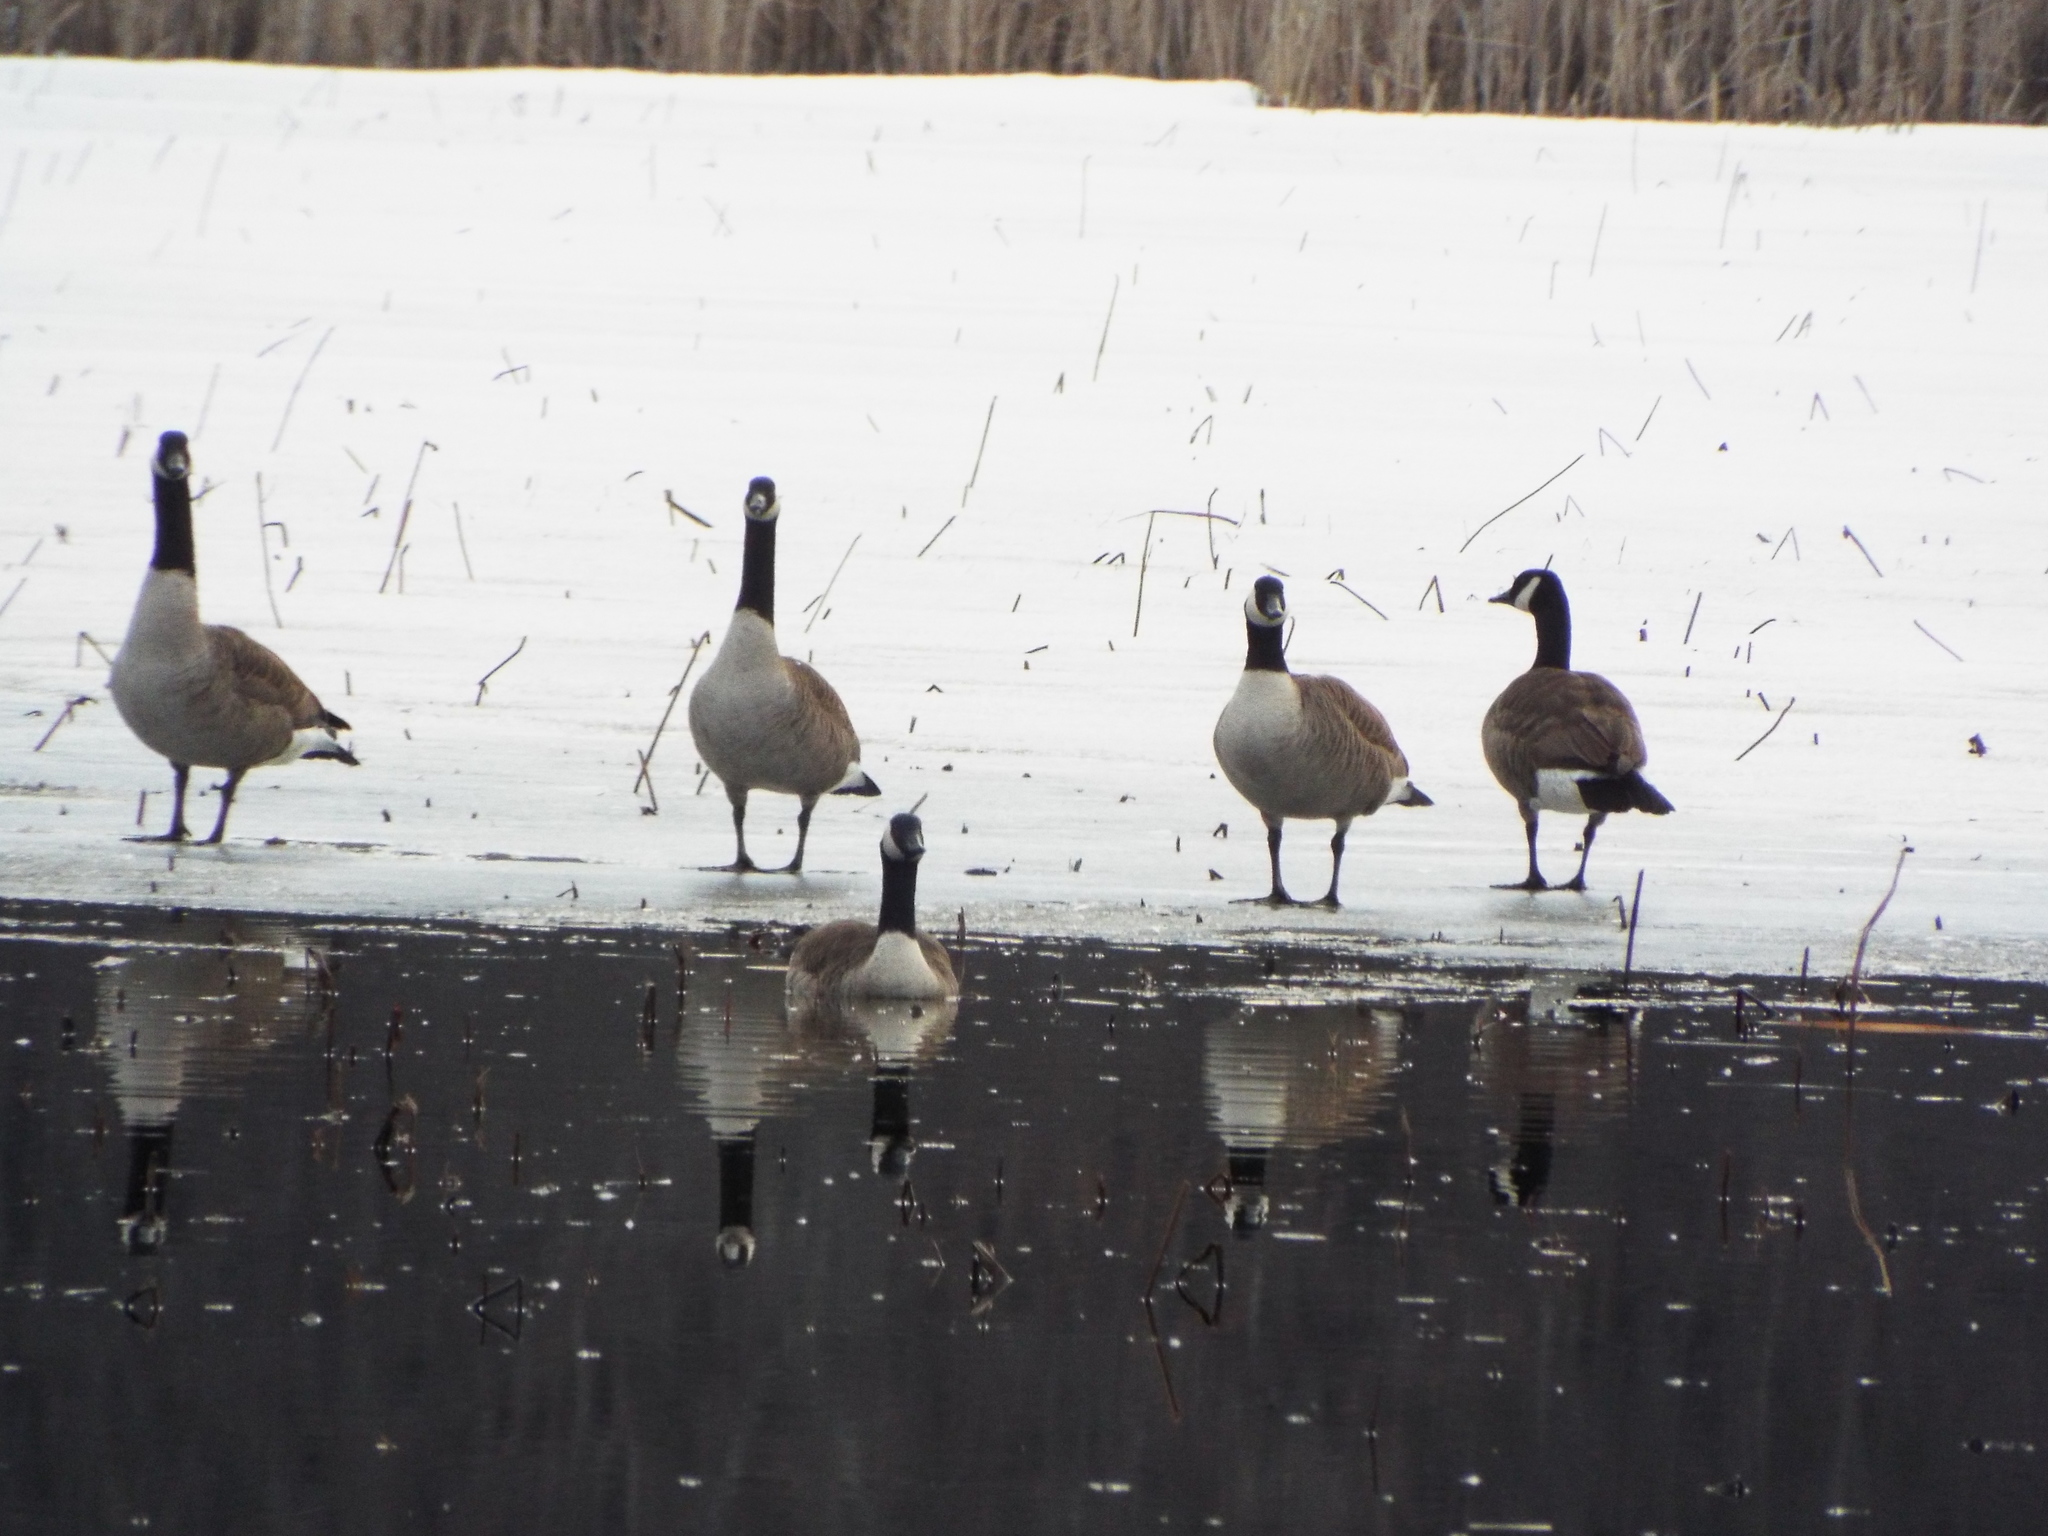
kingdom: Animalia
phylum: Chordata
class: Aves
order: Anseriformes
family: Anatidae
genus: Branta
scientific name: Branta canadensis
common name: Canada goose
